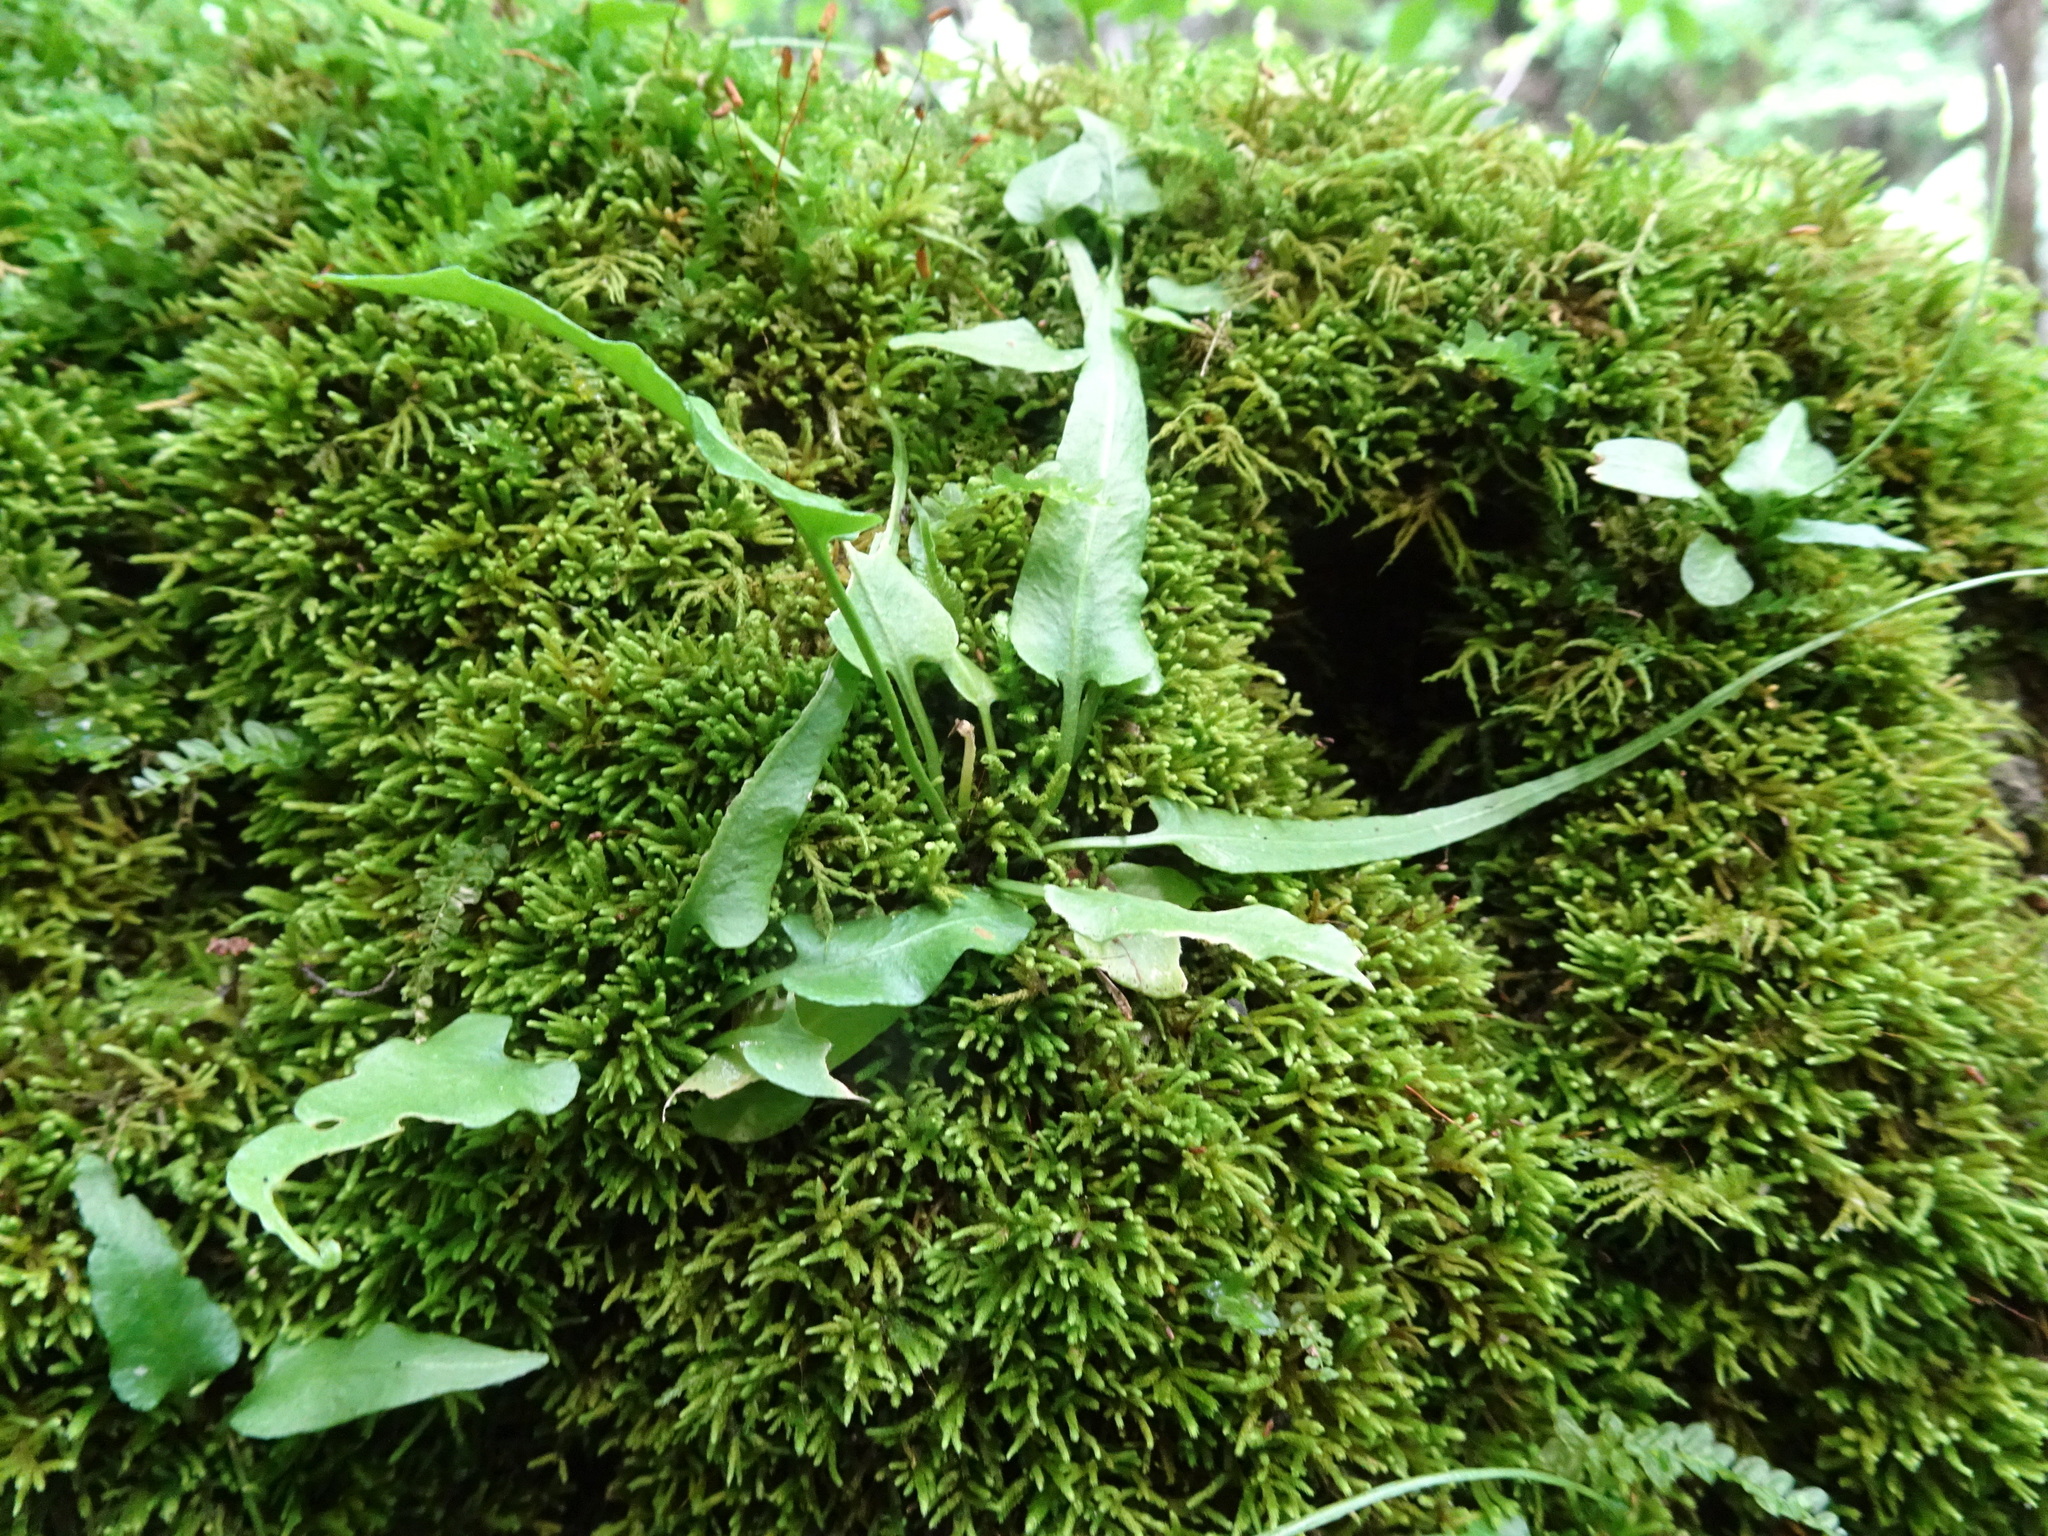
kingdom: Plantae
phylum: Tracheophyta
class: Polypodiopsida
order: Polypodiales
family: Aspleniaceae
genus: Asplenium
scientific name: Asplenium rhizophyllum
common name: Walking fern
